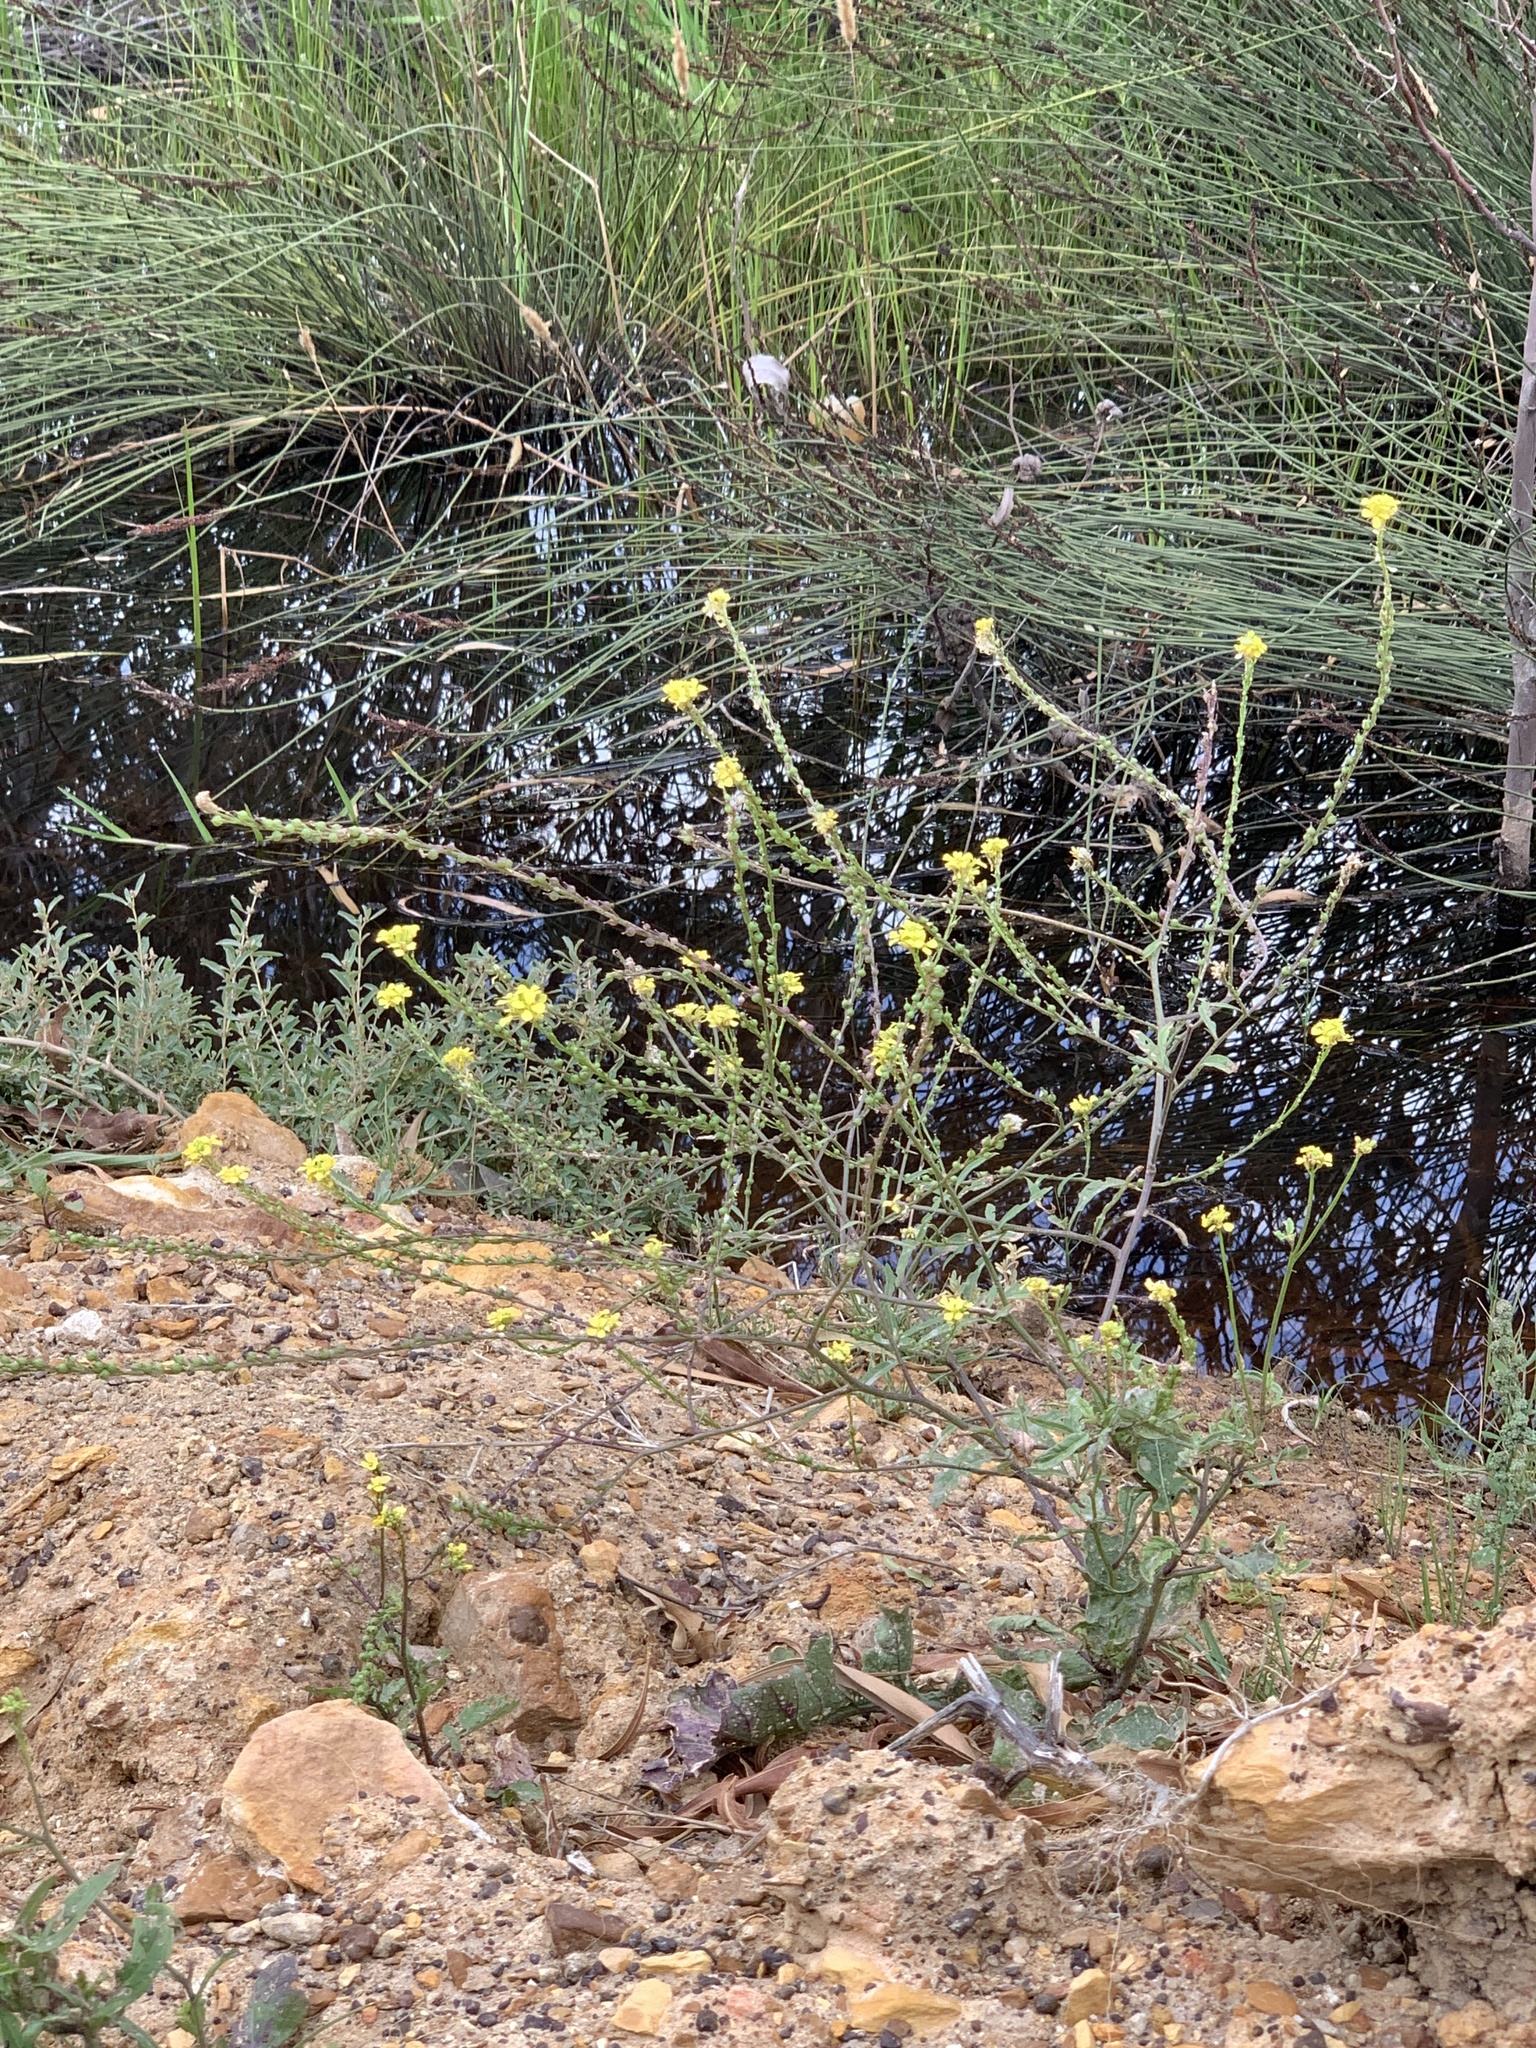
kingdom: Plantae
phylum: Tracheophyta
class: Magnoliopsida
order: Brassicales
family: Brassicaceae
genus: Rapistrum
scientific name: Rapistrum rugosum
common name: Annual bastardcabbage
